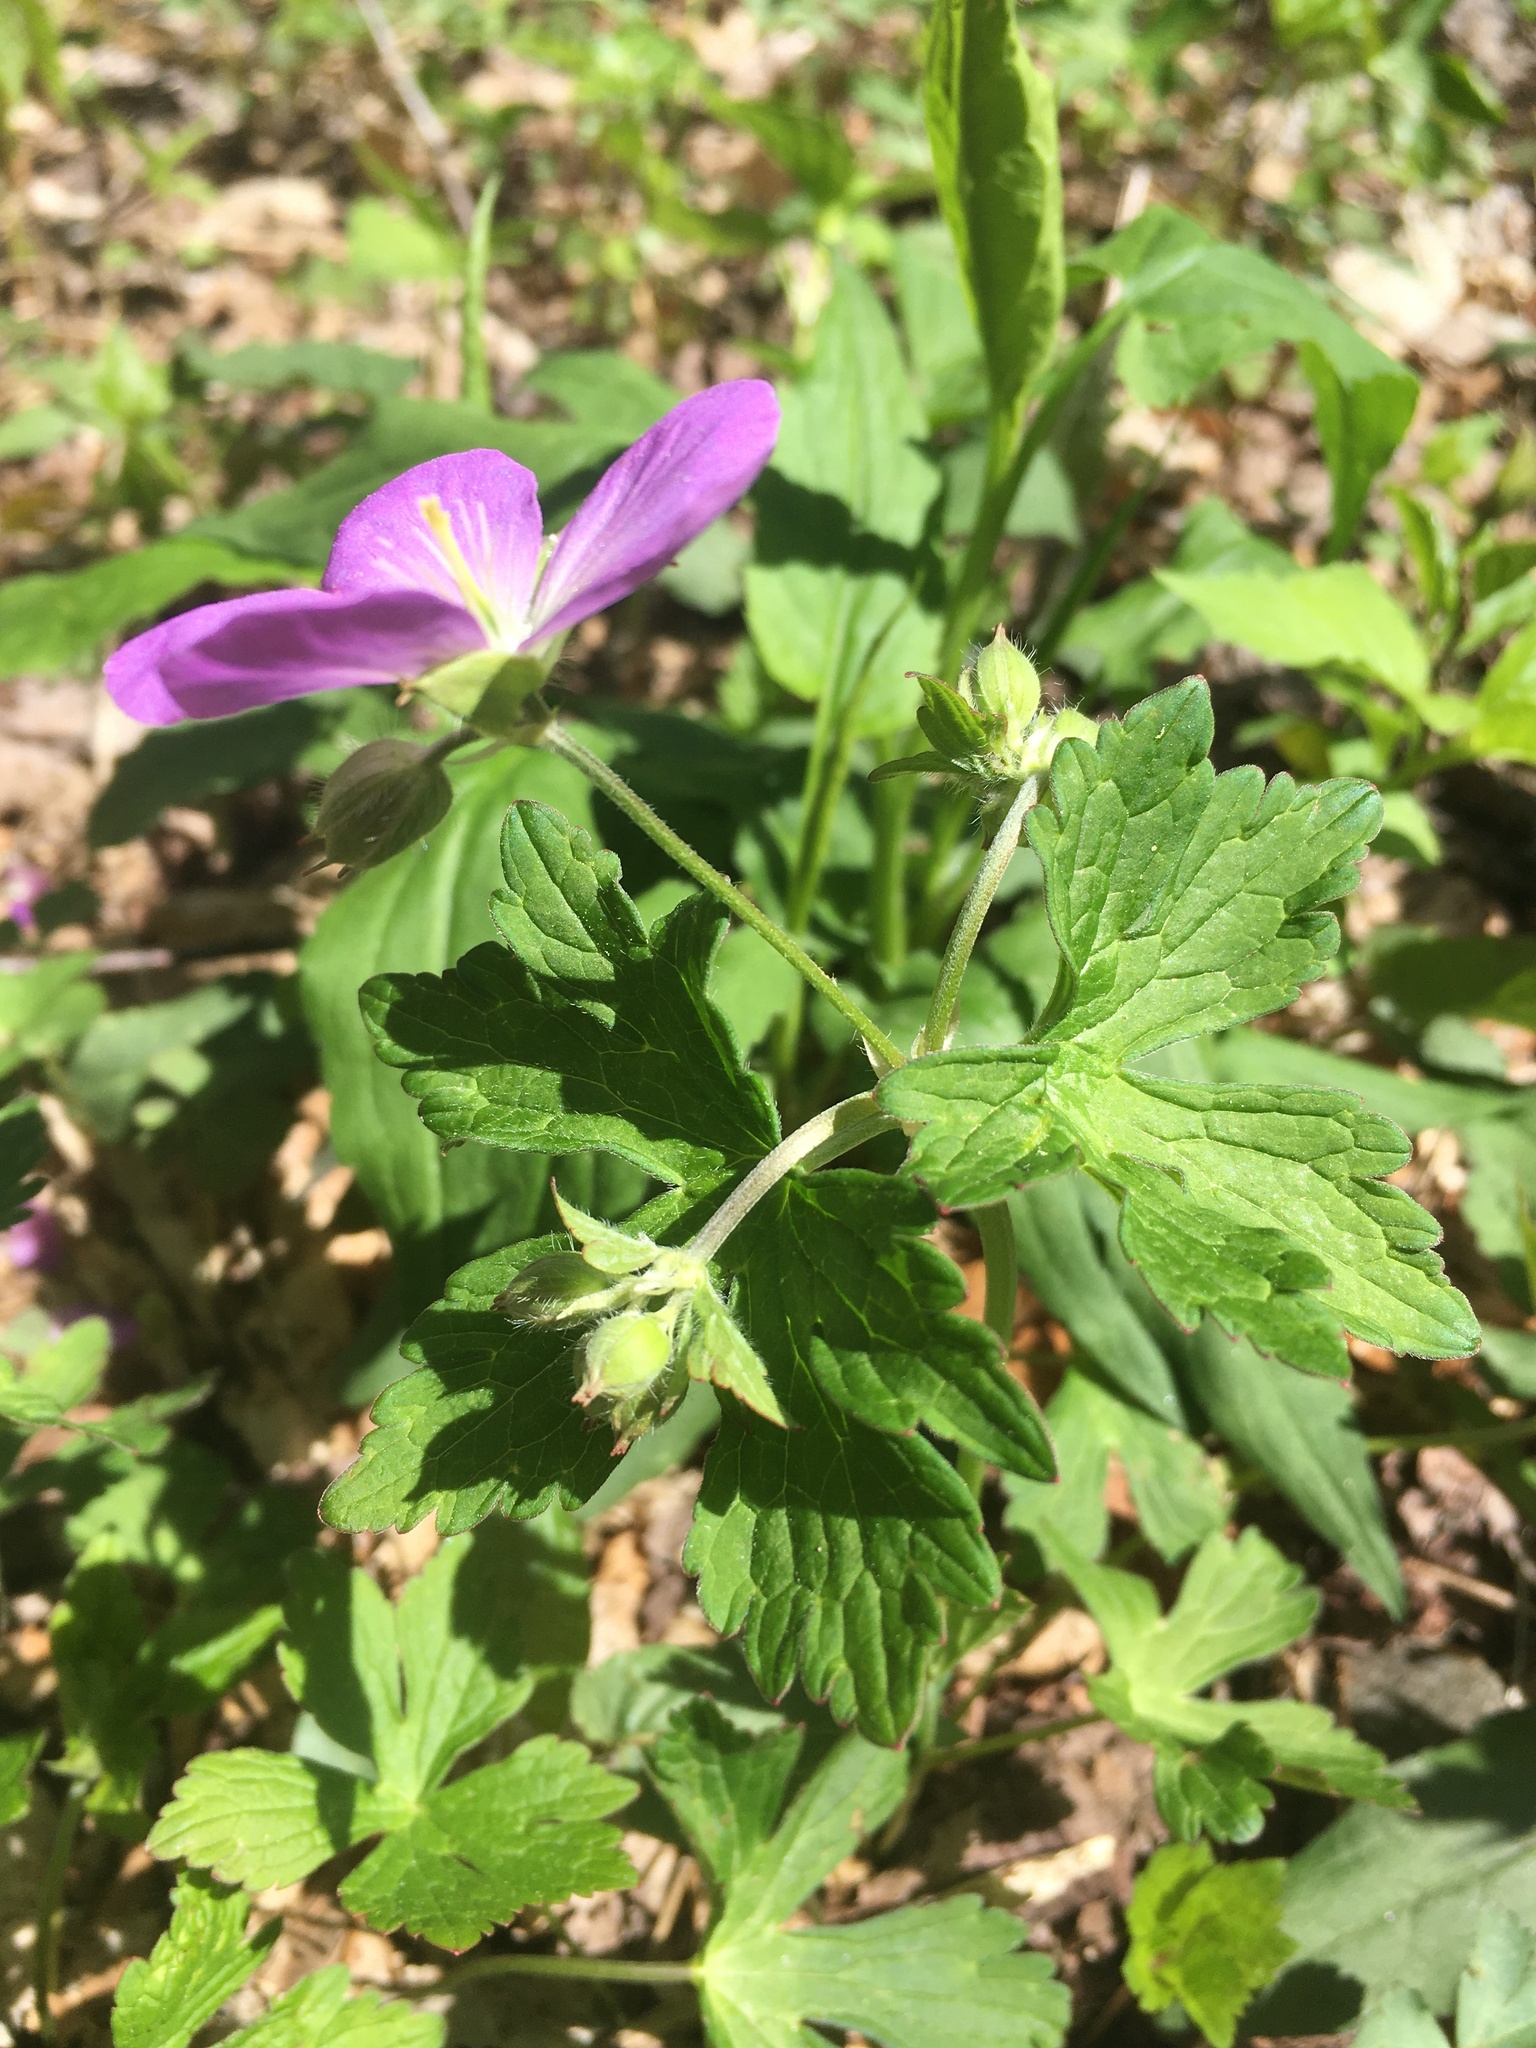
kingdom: Plantae
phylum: Tracheophyta
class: Magnoliopsida
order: Geraniales
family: Geraniaceae
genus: Geranium
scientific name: Geranium maculatum
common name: Spotted geranium
